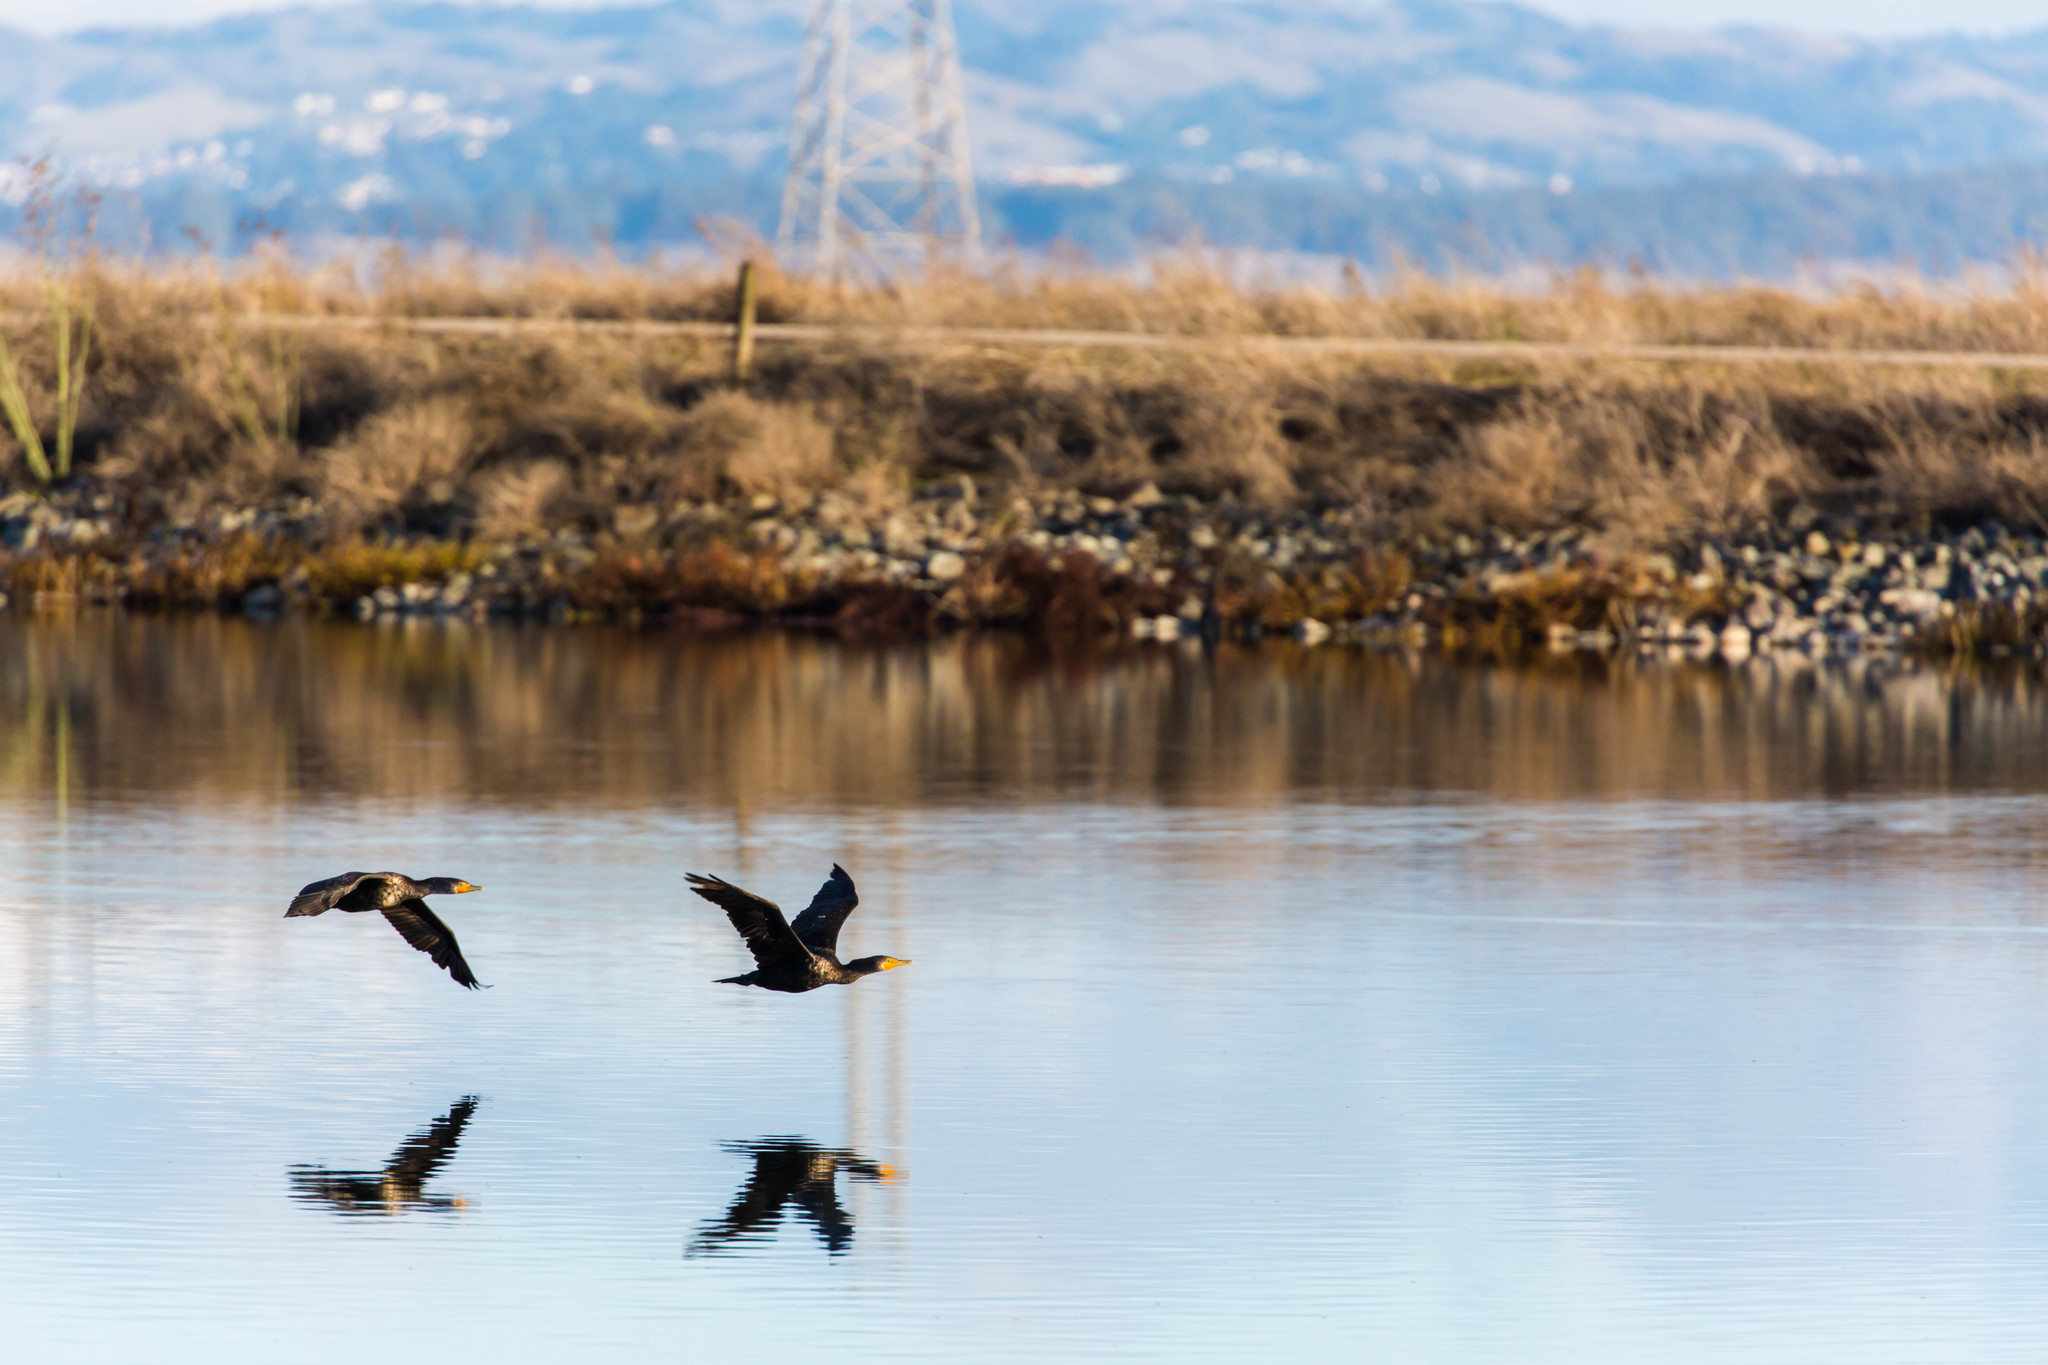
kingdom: Animalia
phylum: Chordata
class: Aves
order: Suliformes
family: Phalacrocoracidae
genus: Phalacrocorax
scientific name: Phalacrocorax auritus
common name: Double-crested cormorant
